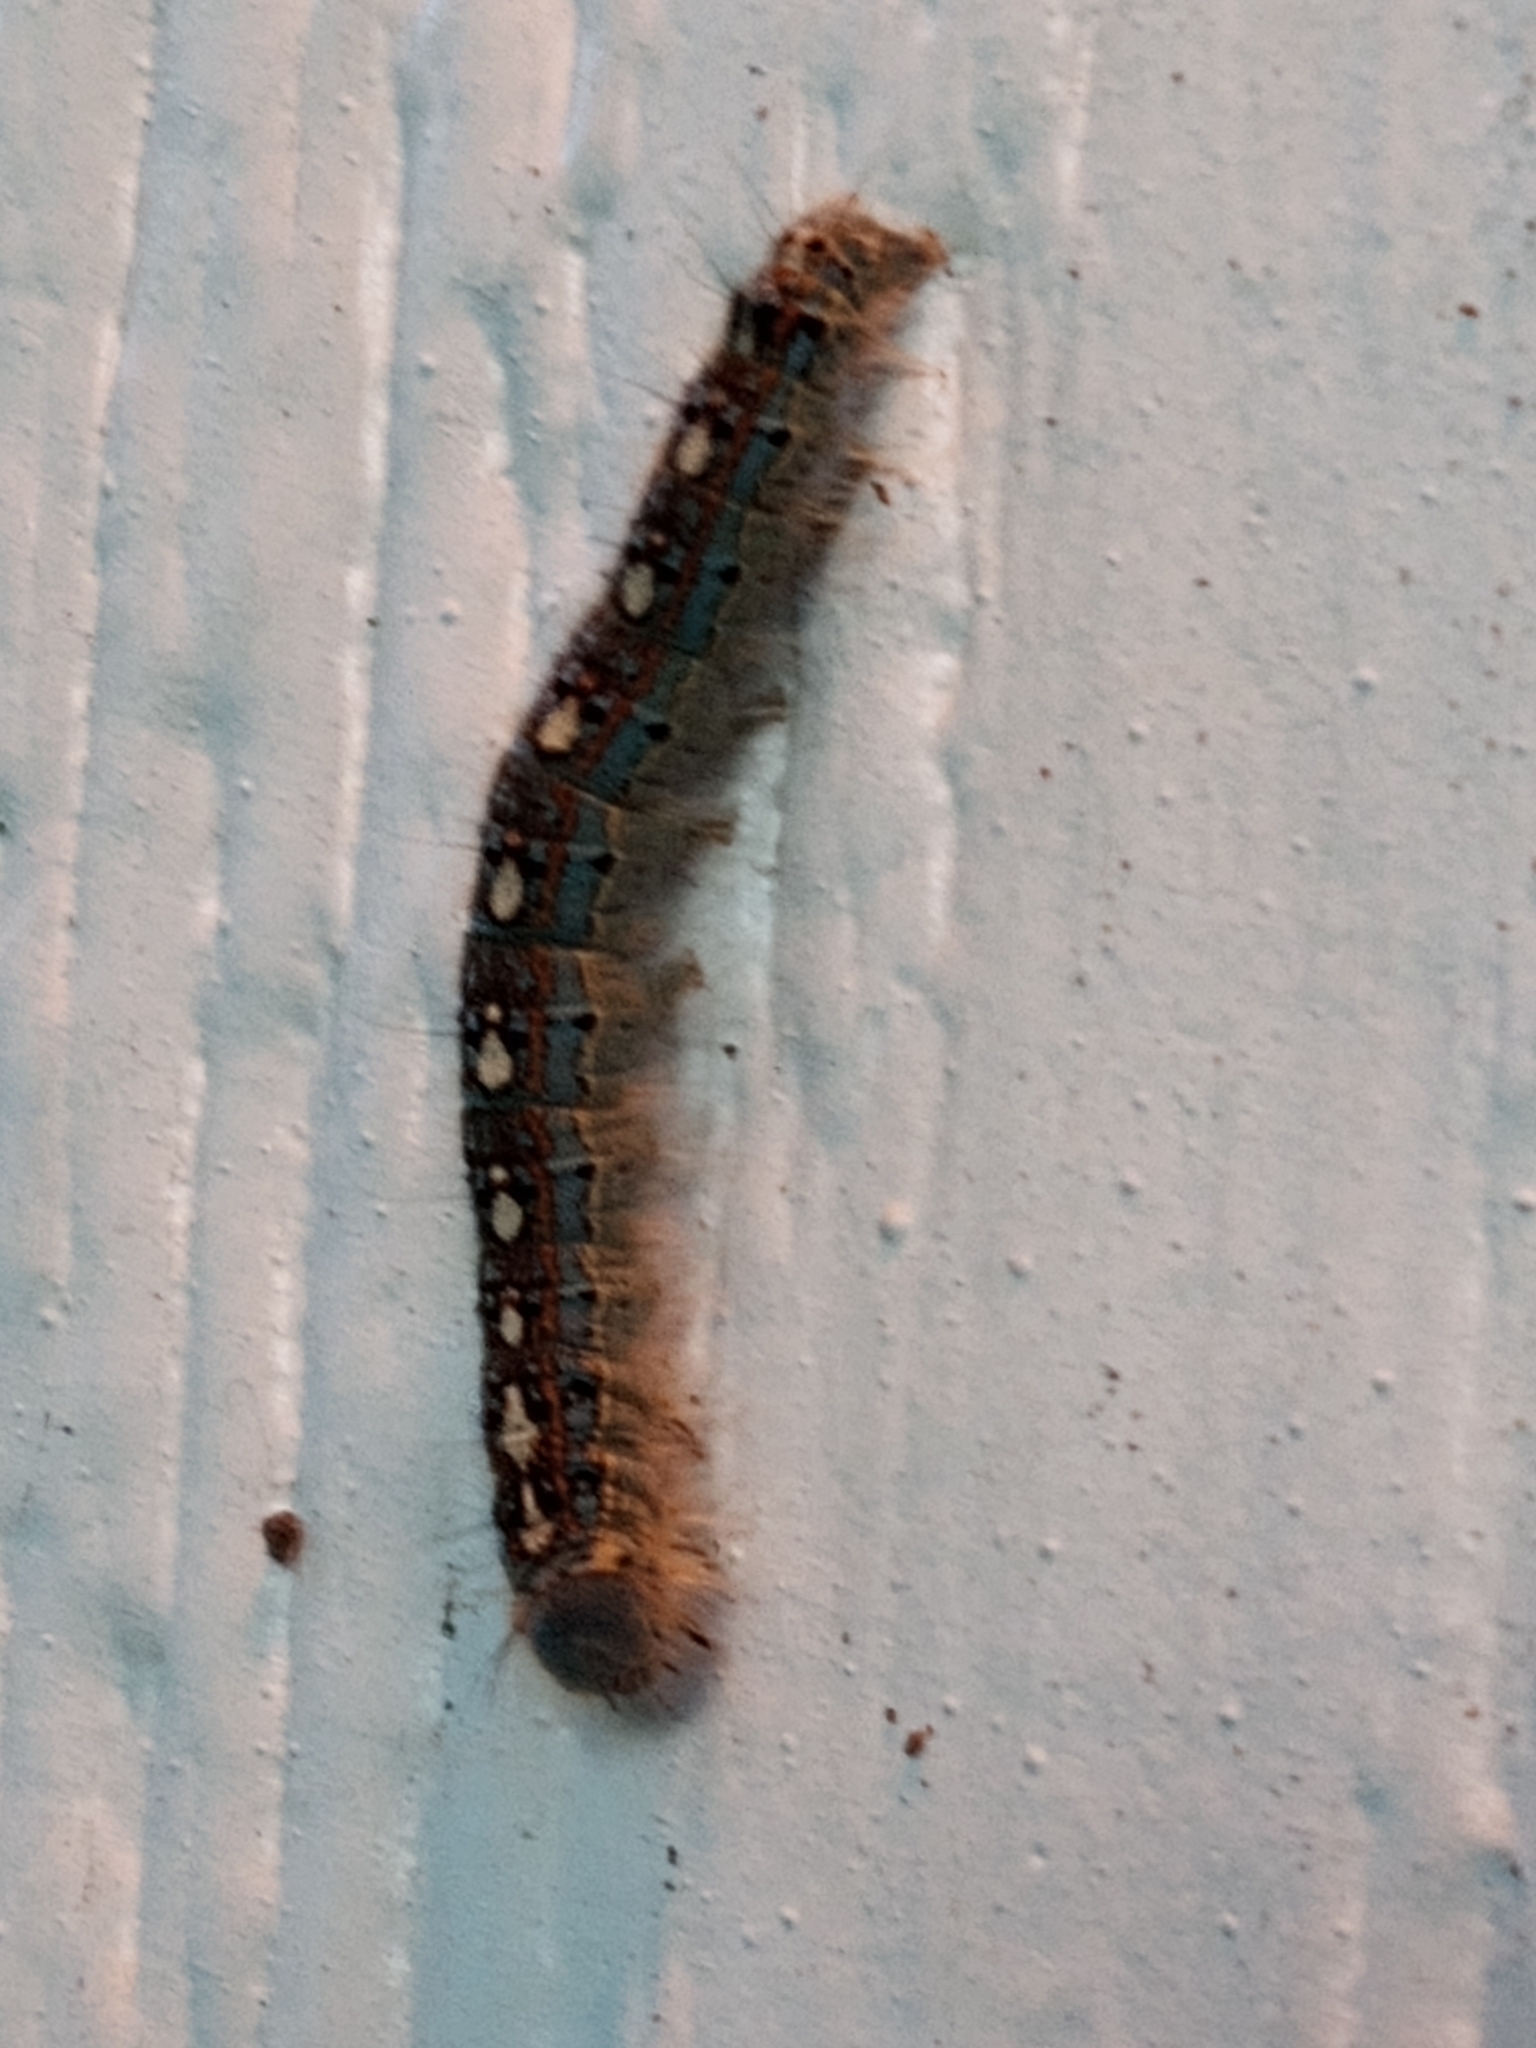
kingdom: Animalia
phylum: Arthropoda
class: Insecta
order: Lepidoptera
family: Lasiocampidae
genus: Malacosoma
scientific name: Malacosoma disstria
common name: Forest tent caterpillar
